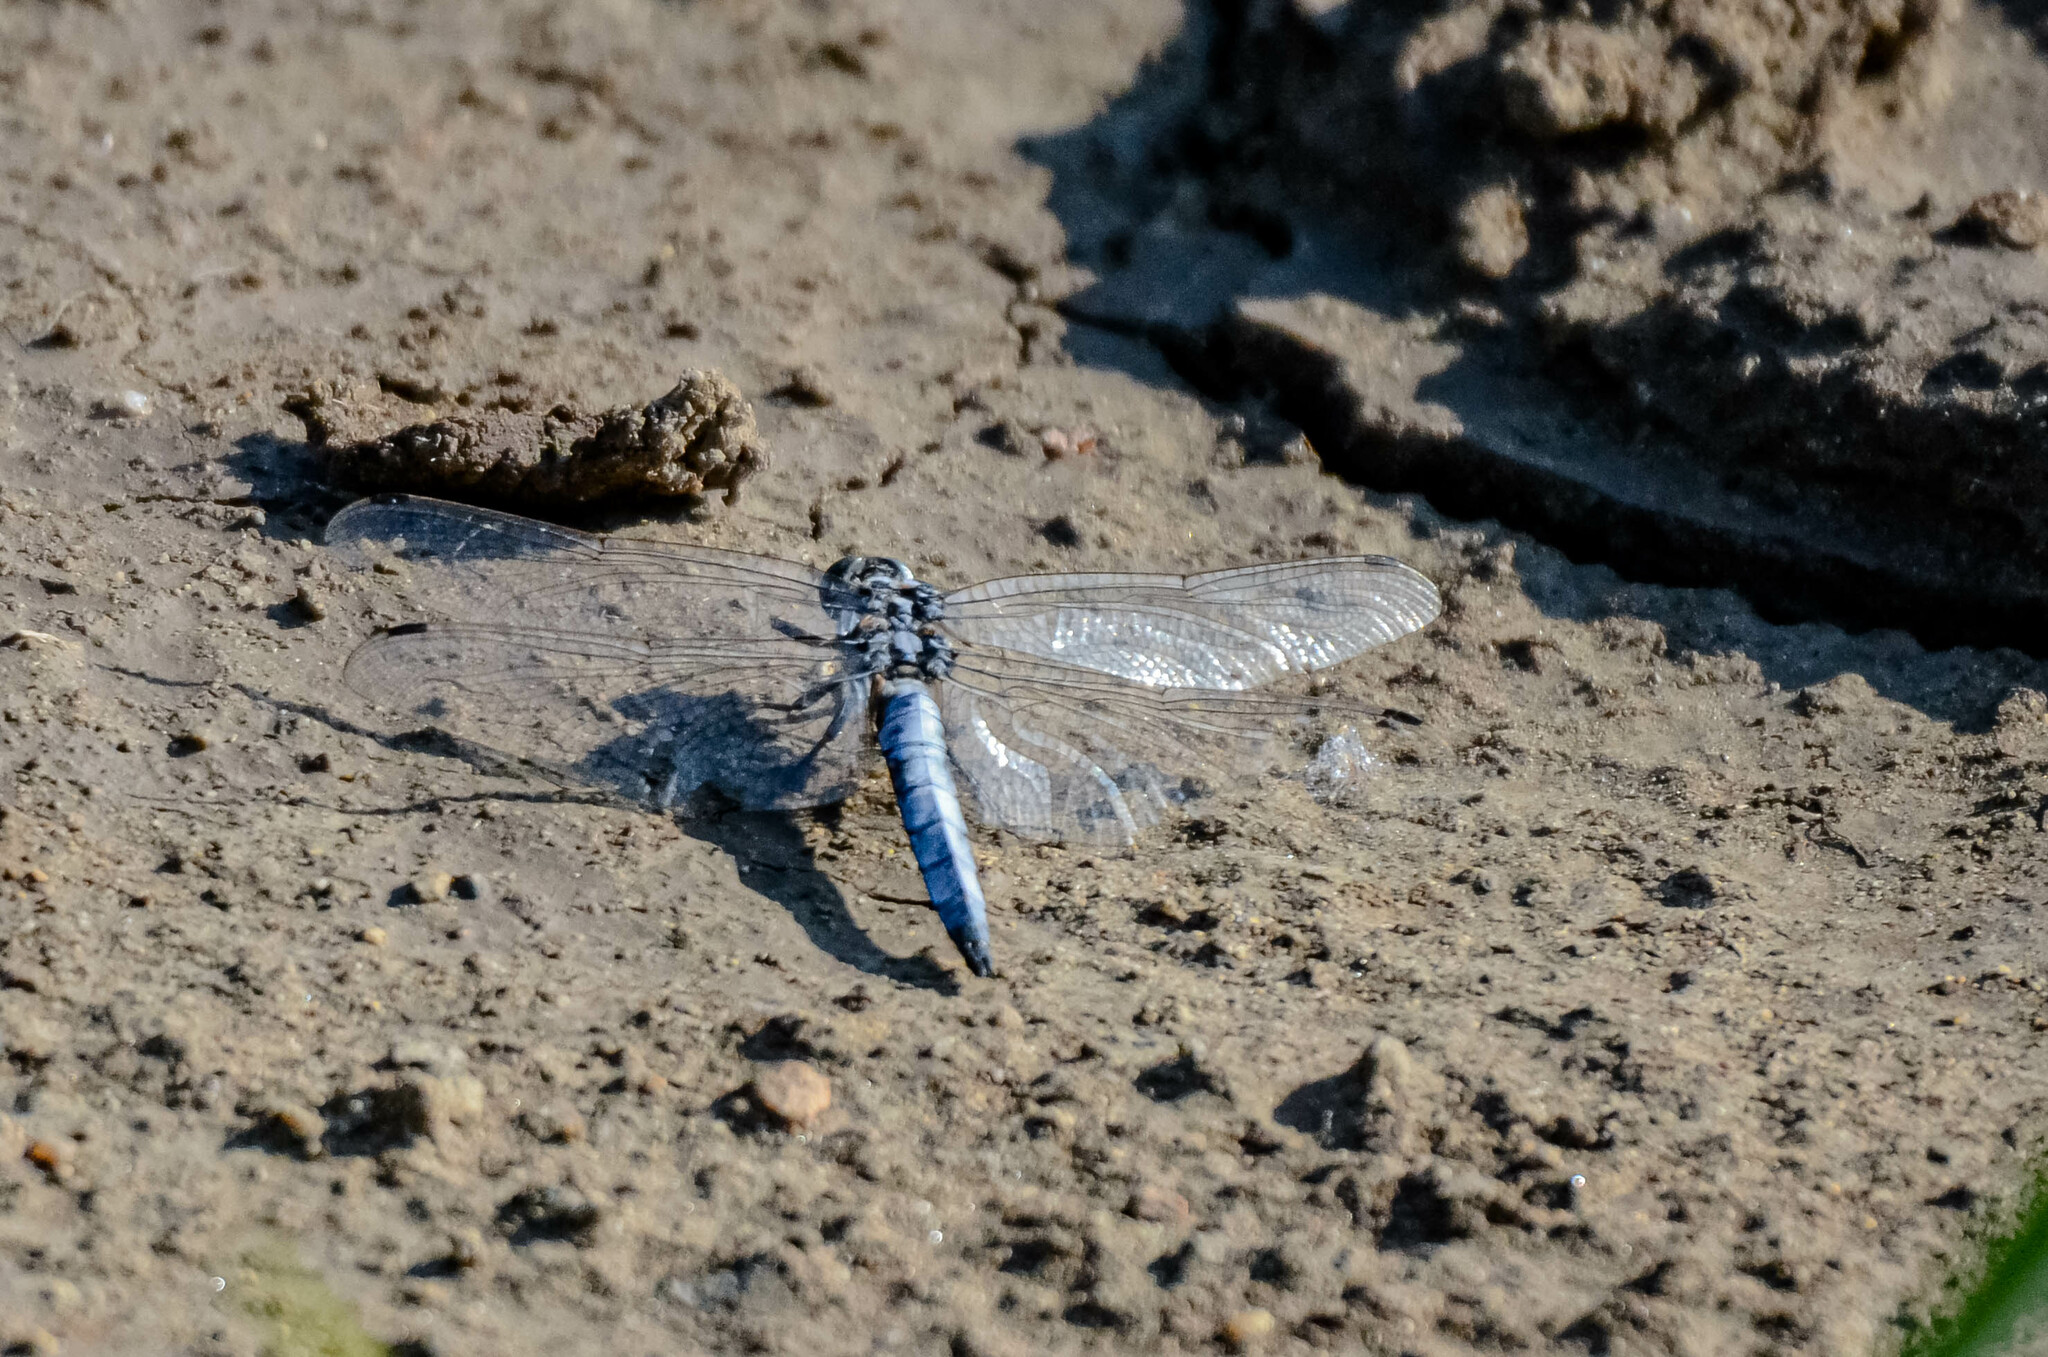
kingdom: Animalia
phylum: Arthropoda
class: Insecta
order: Odonata
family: Libellulidae
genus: Orthetrum
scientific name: Orthetrum cancellatum
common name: Black-tailed skimmer
